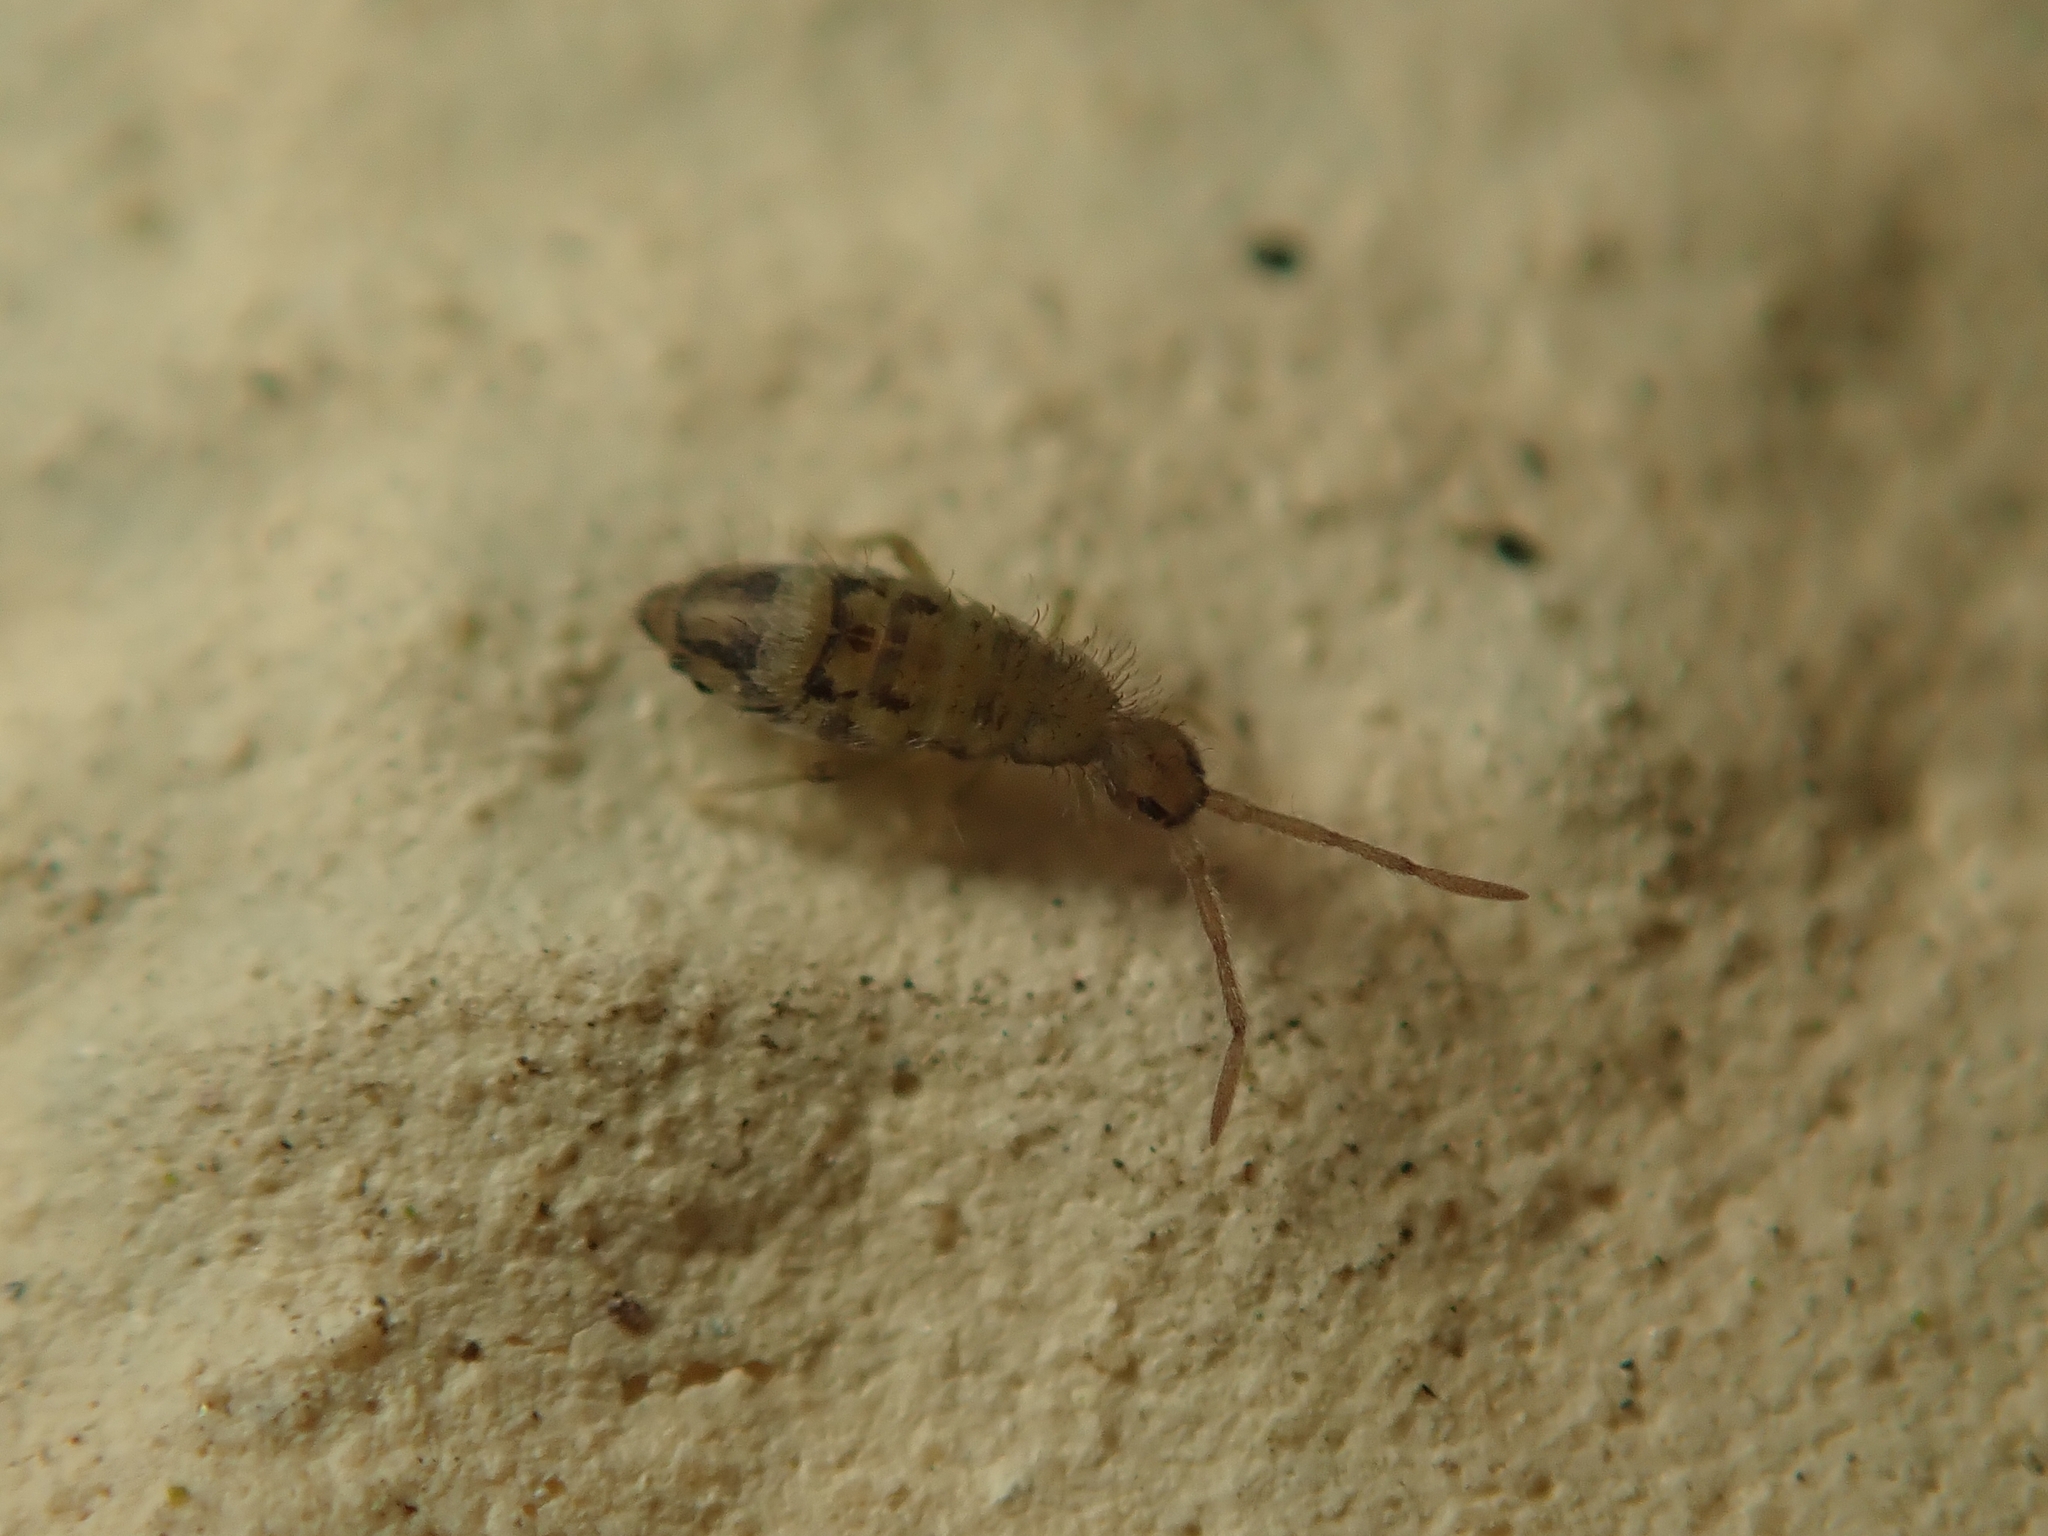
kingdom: Animalia
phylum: Arthropoda
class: Collembola
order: Entomobryomorpha
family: Entomobryidae
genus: Entomobrya
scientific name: Entomobrya nivalis
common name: Cosmopolitan springtail
